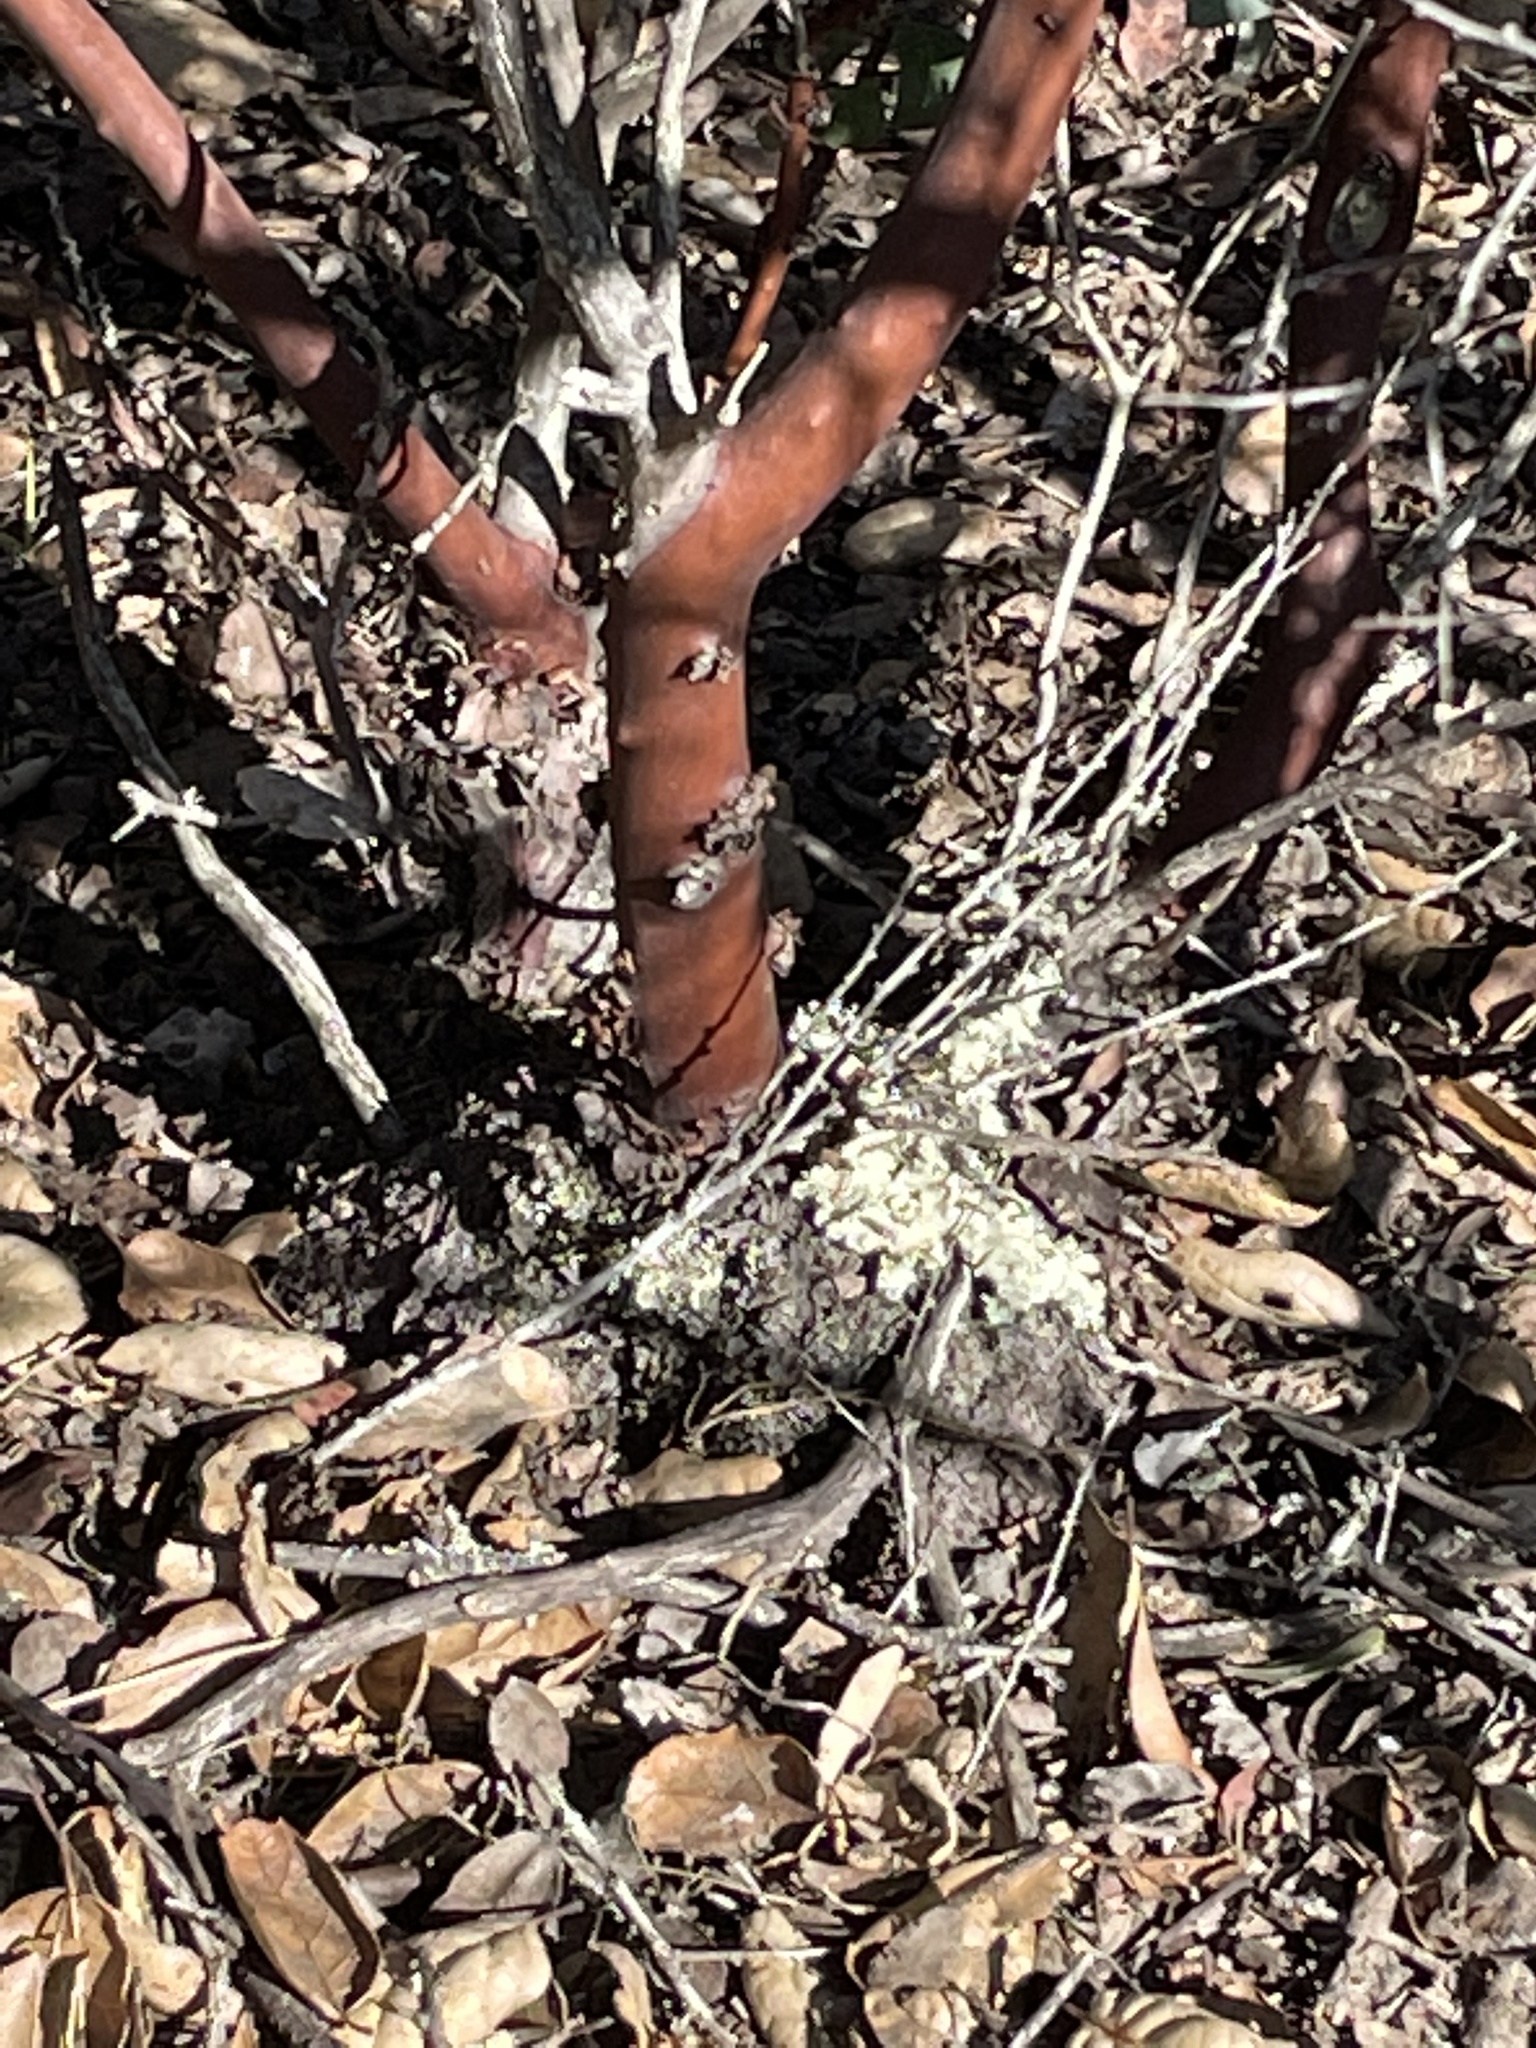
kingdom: Plantae
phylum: Tracheophyta
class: Magnoliopsida
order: Ericales
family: Ericaceae
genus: Arctostaphylos
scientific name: Arctostaphylos crustacea
